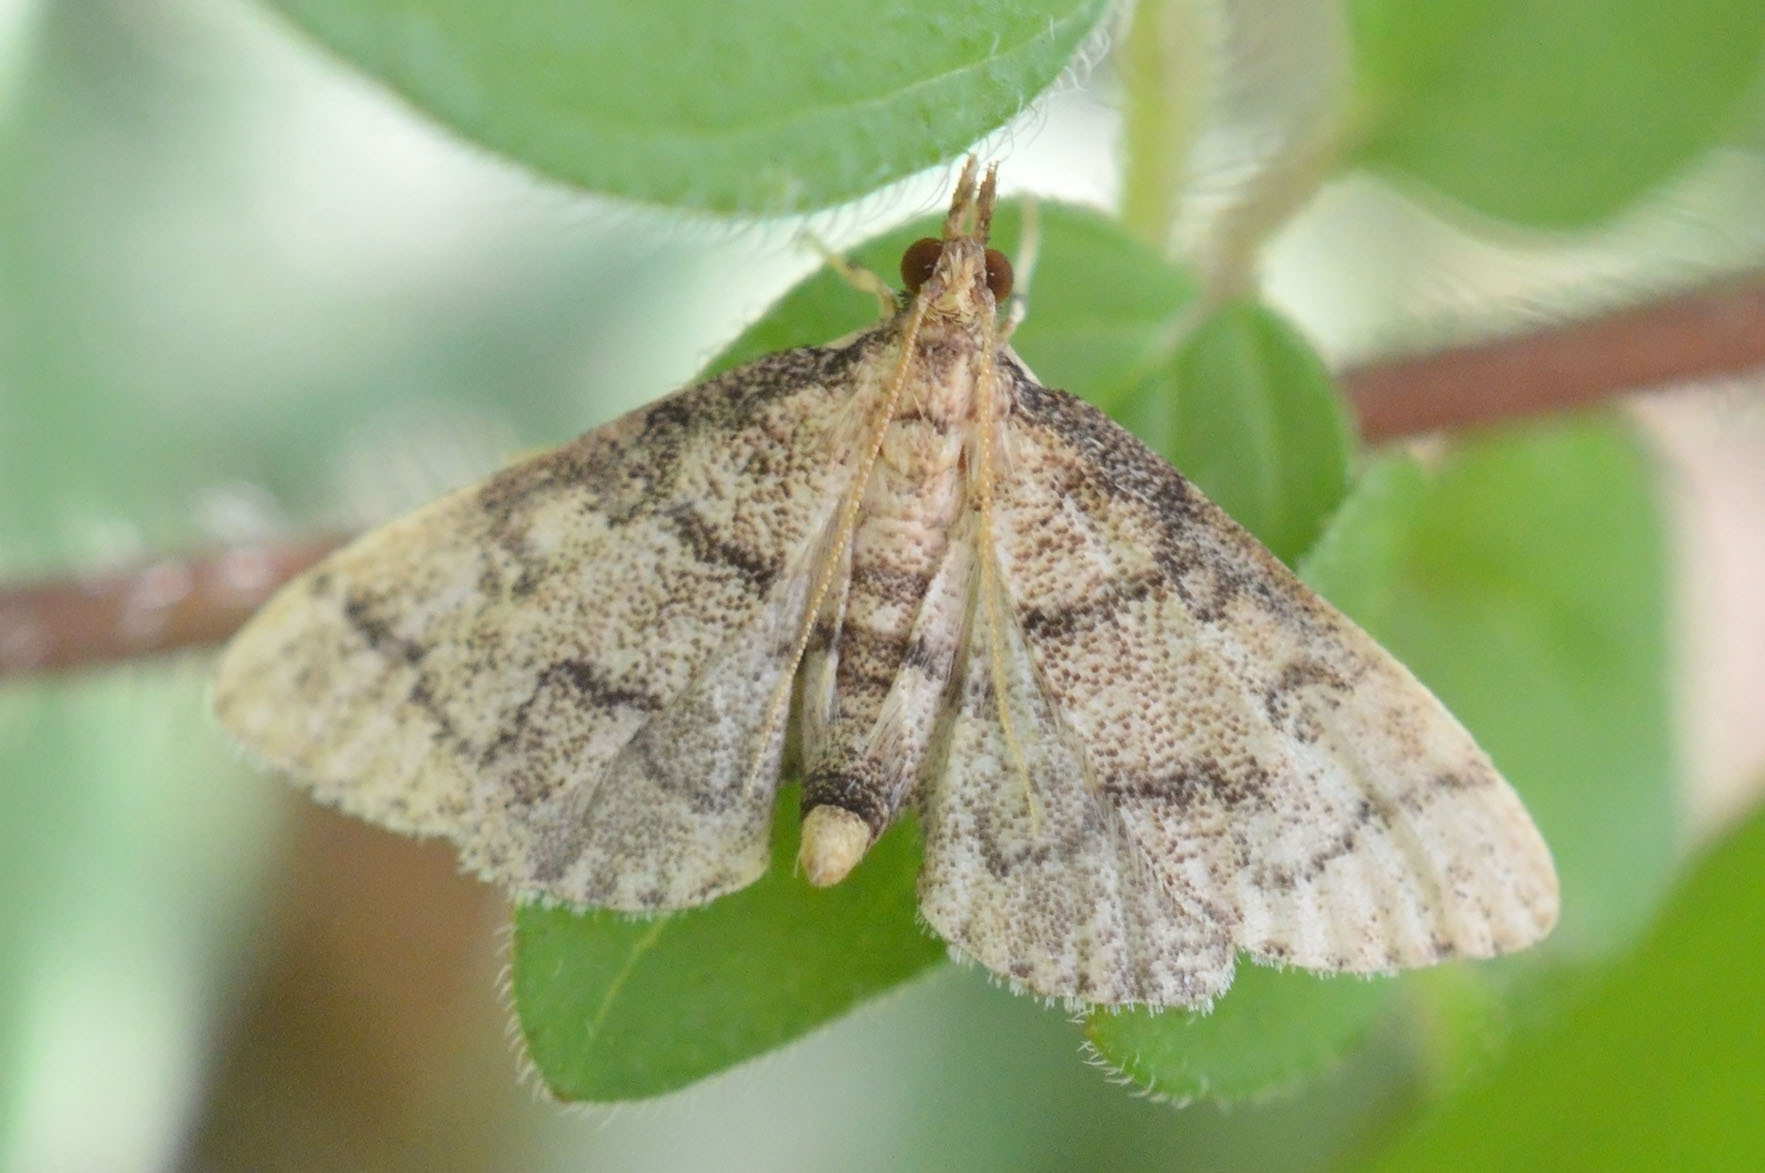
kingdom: Animalia
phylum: Arthropoda
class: Insecta
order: Lepidoptera
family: Crambidae
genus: Metasia
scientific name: Metasia ophialis
